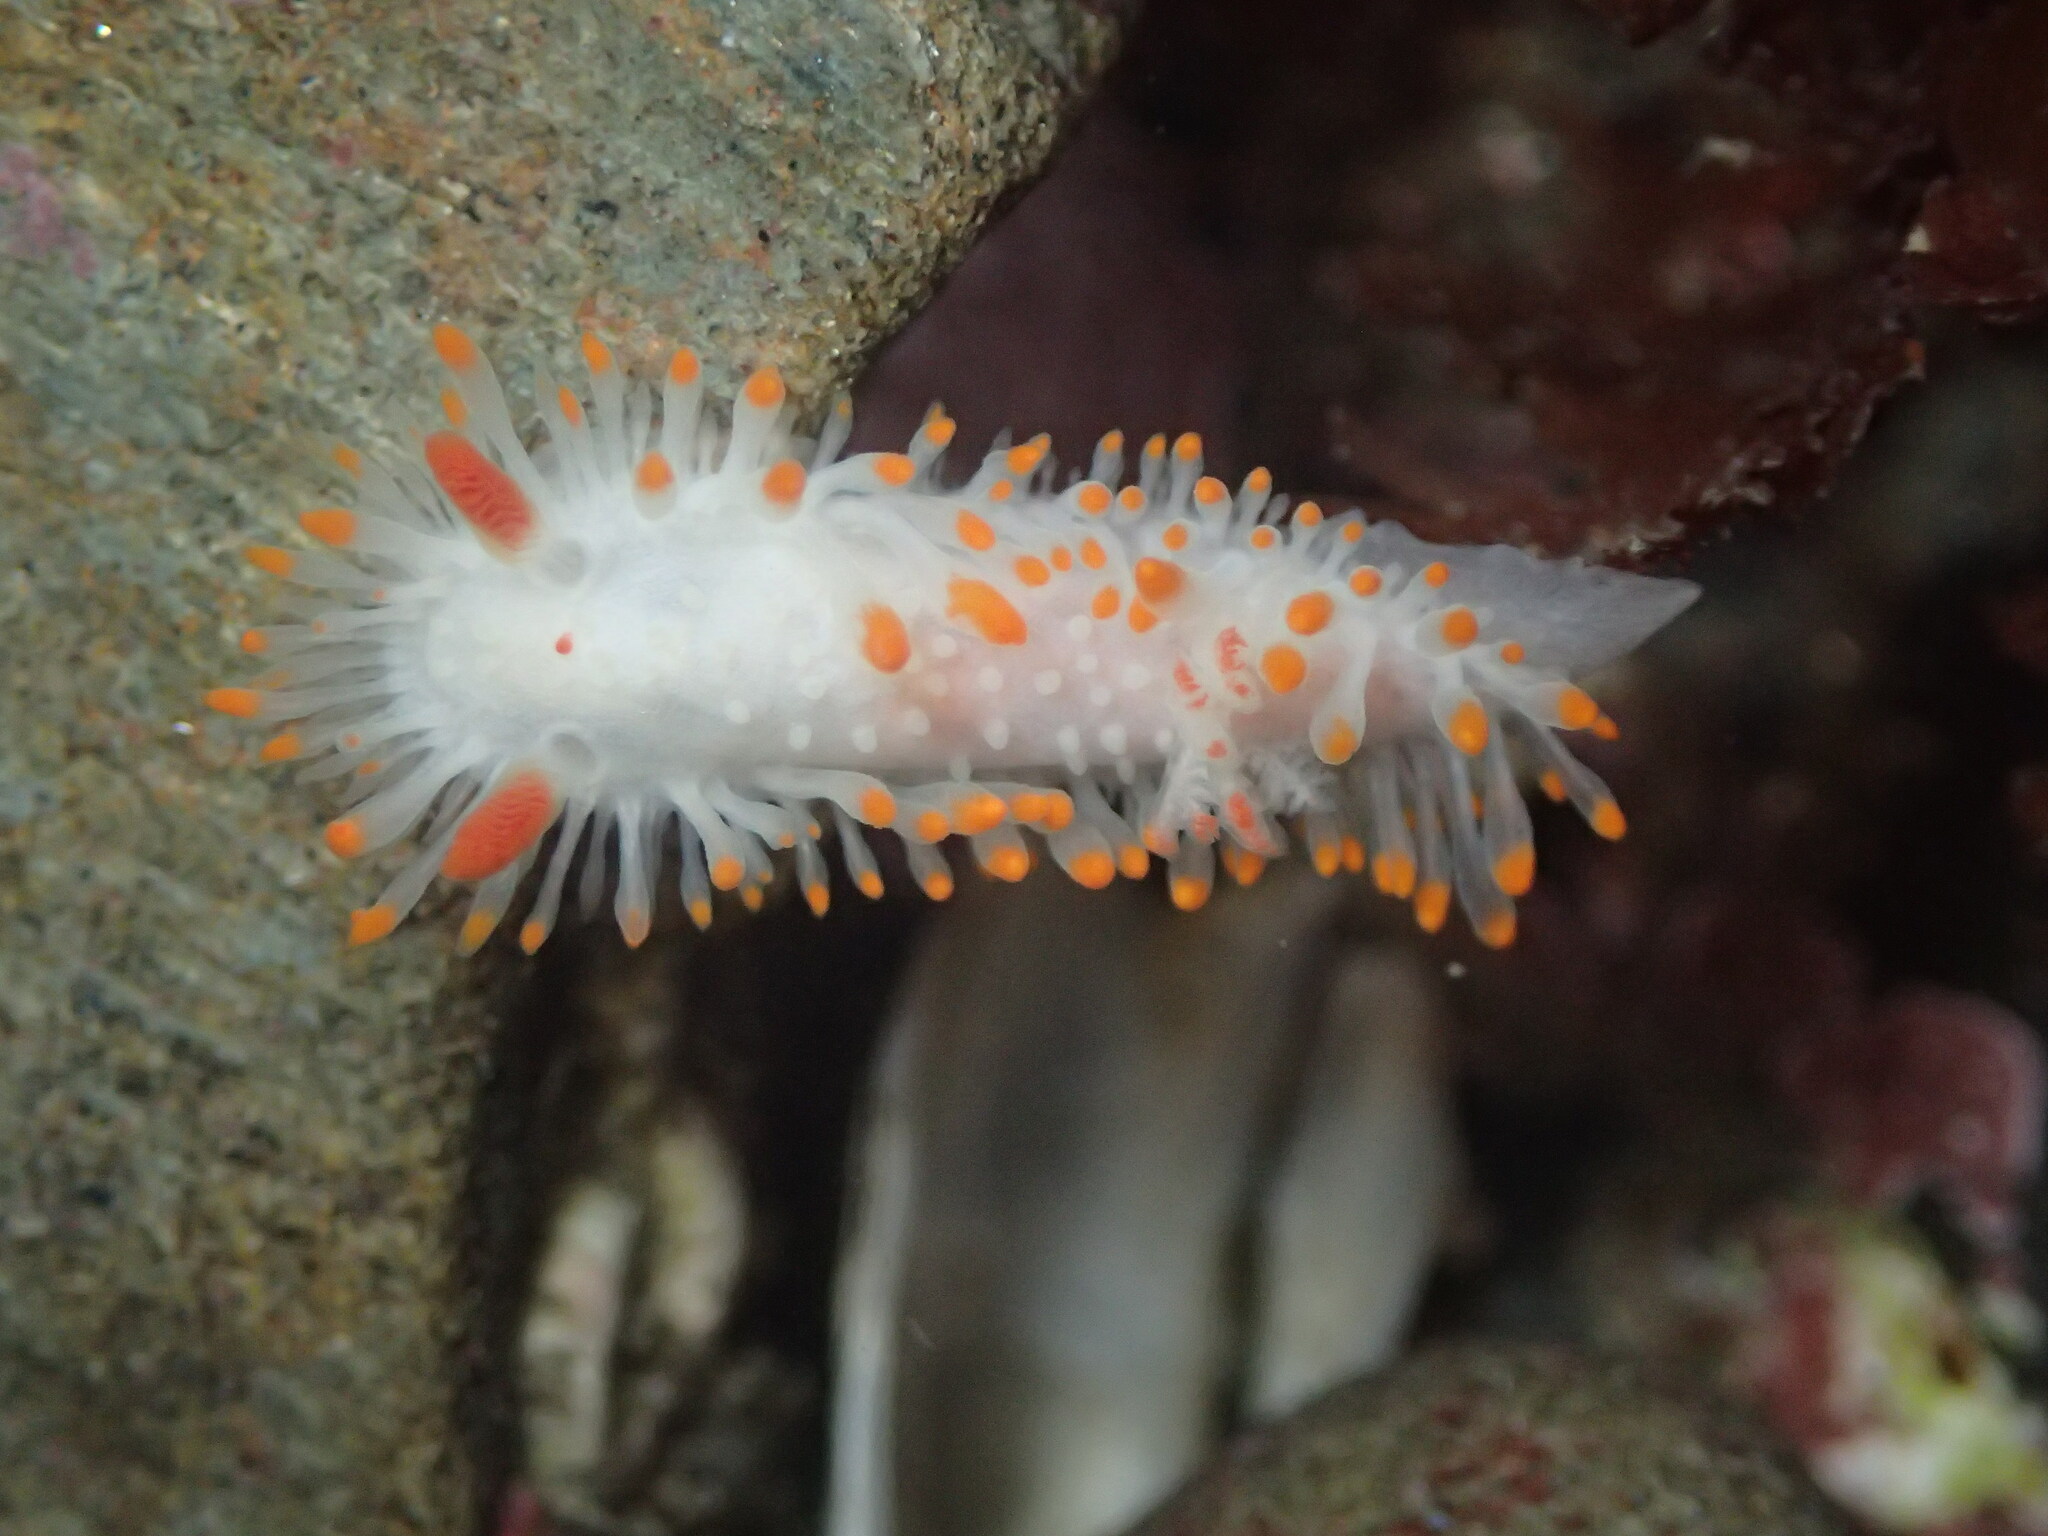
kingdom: Animalia
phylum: Mollusca
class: Gastropoda
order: Nudibranchia
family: Polyceridae
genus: Limacia
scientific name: Limacia cockerelli
